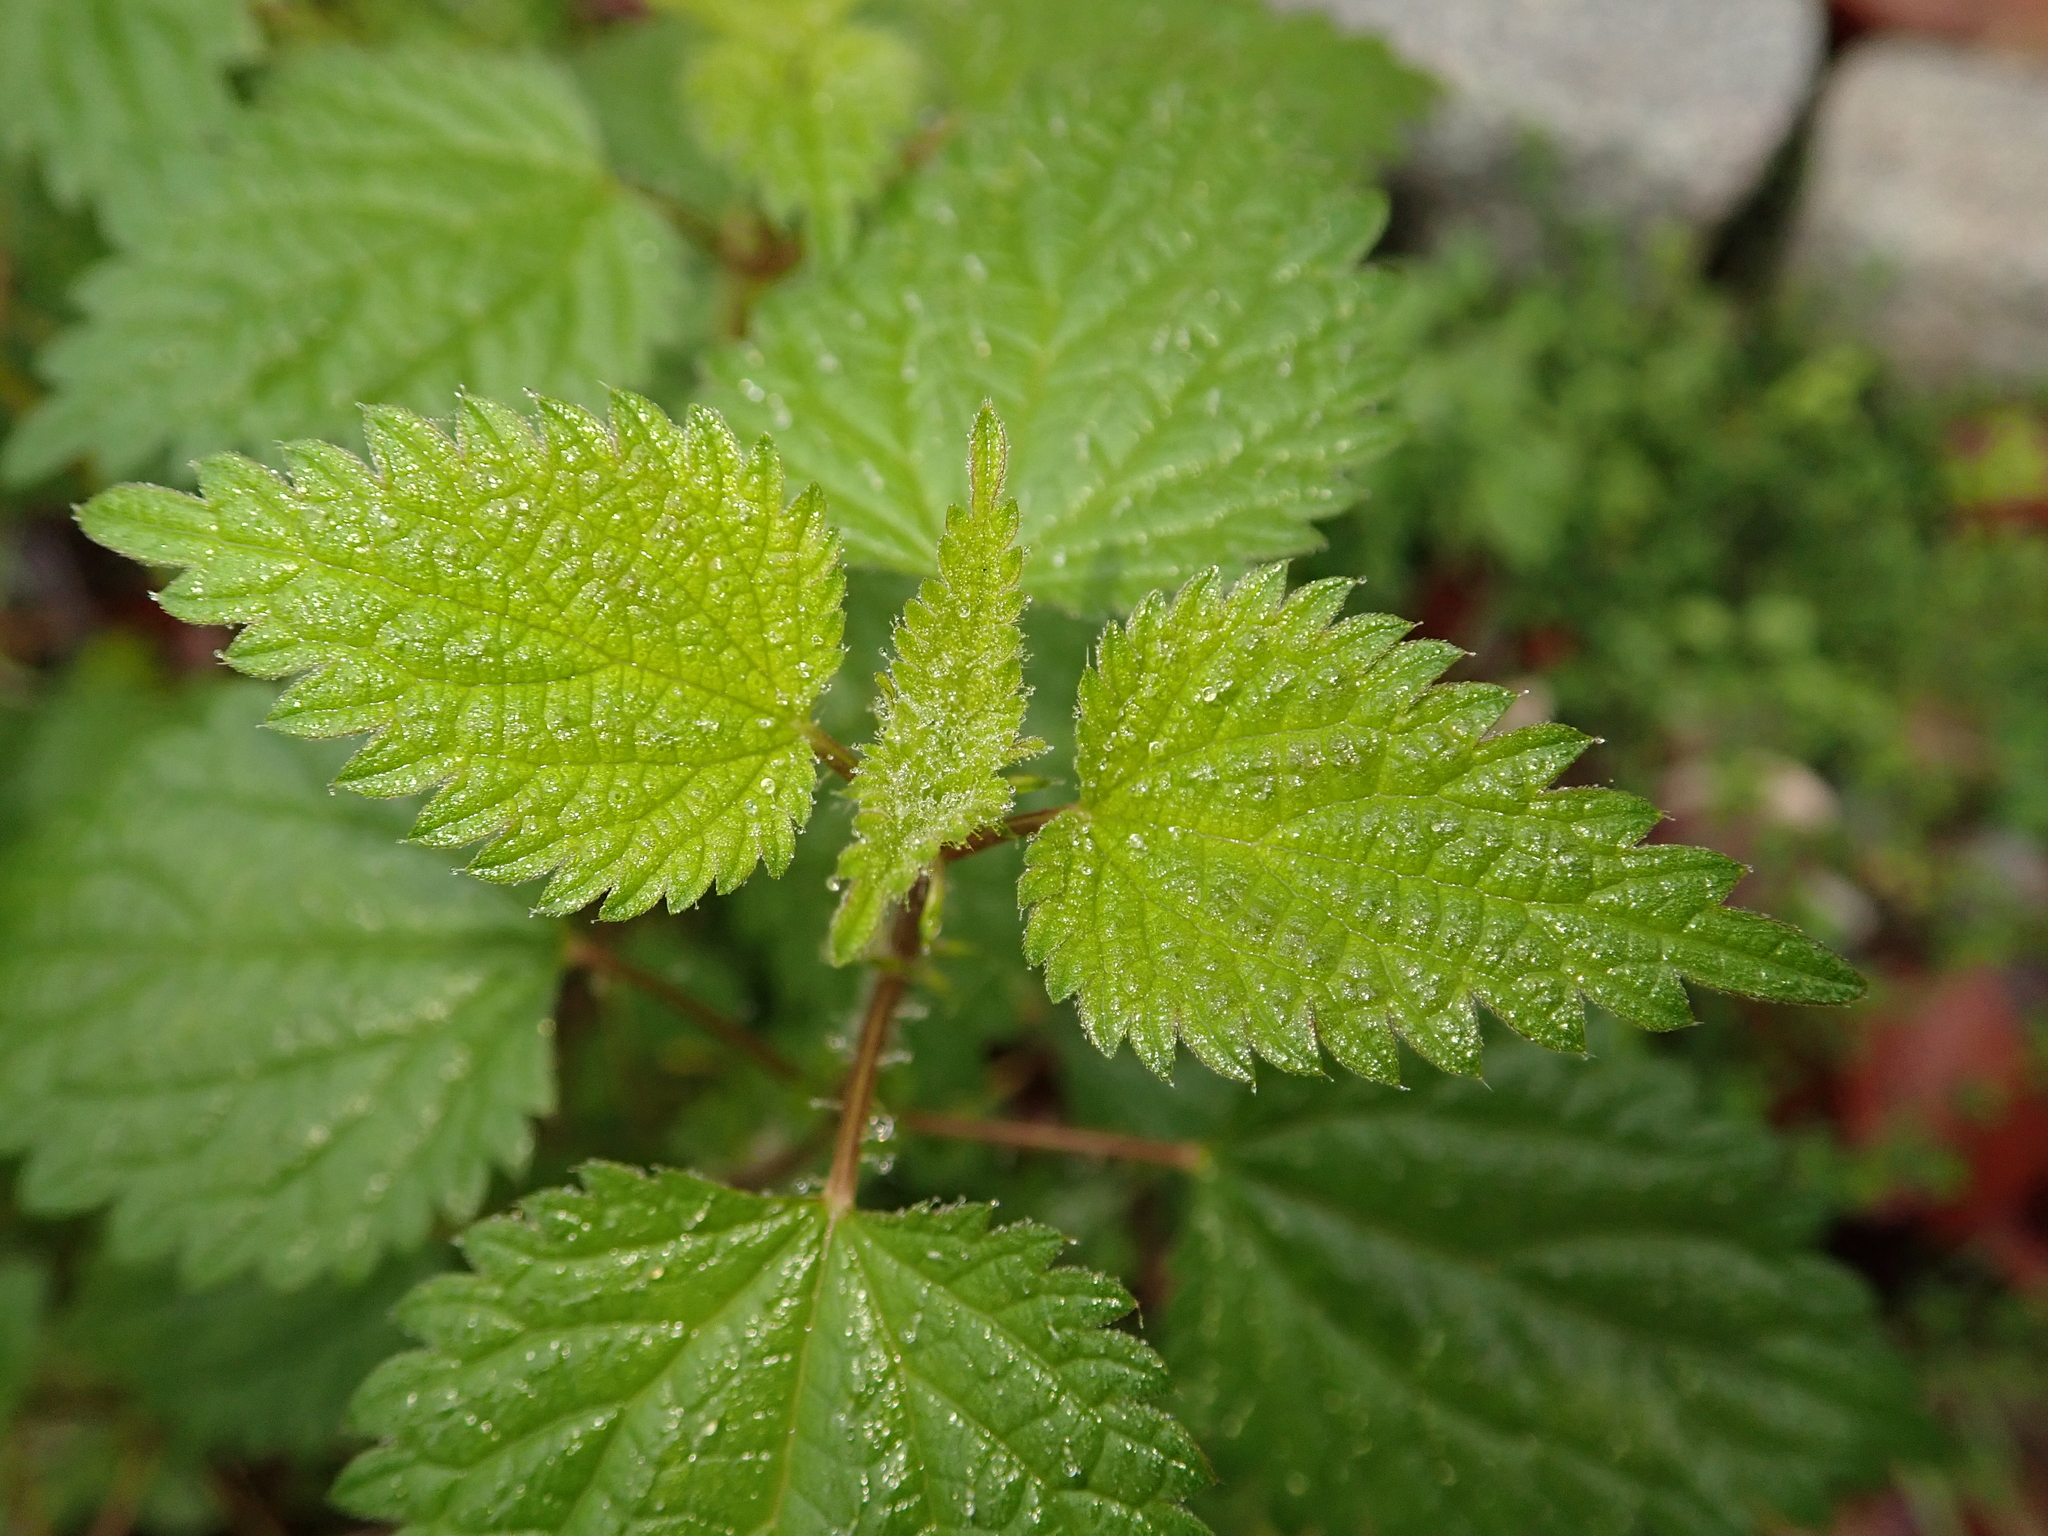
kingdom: Plantae
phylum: Tracheophyta
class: Magnoliopsida
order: Rosales
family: Urticaceae
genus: Urtica
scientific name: Urtica dioica
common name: Common nettle
